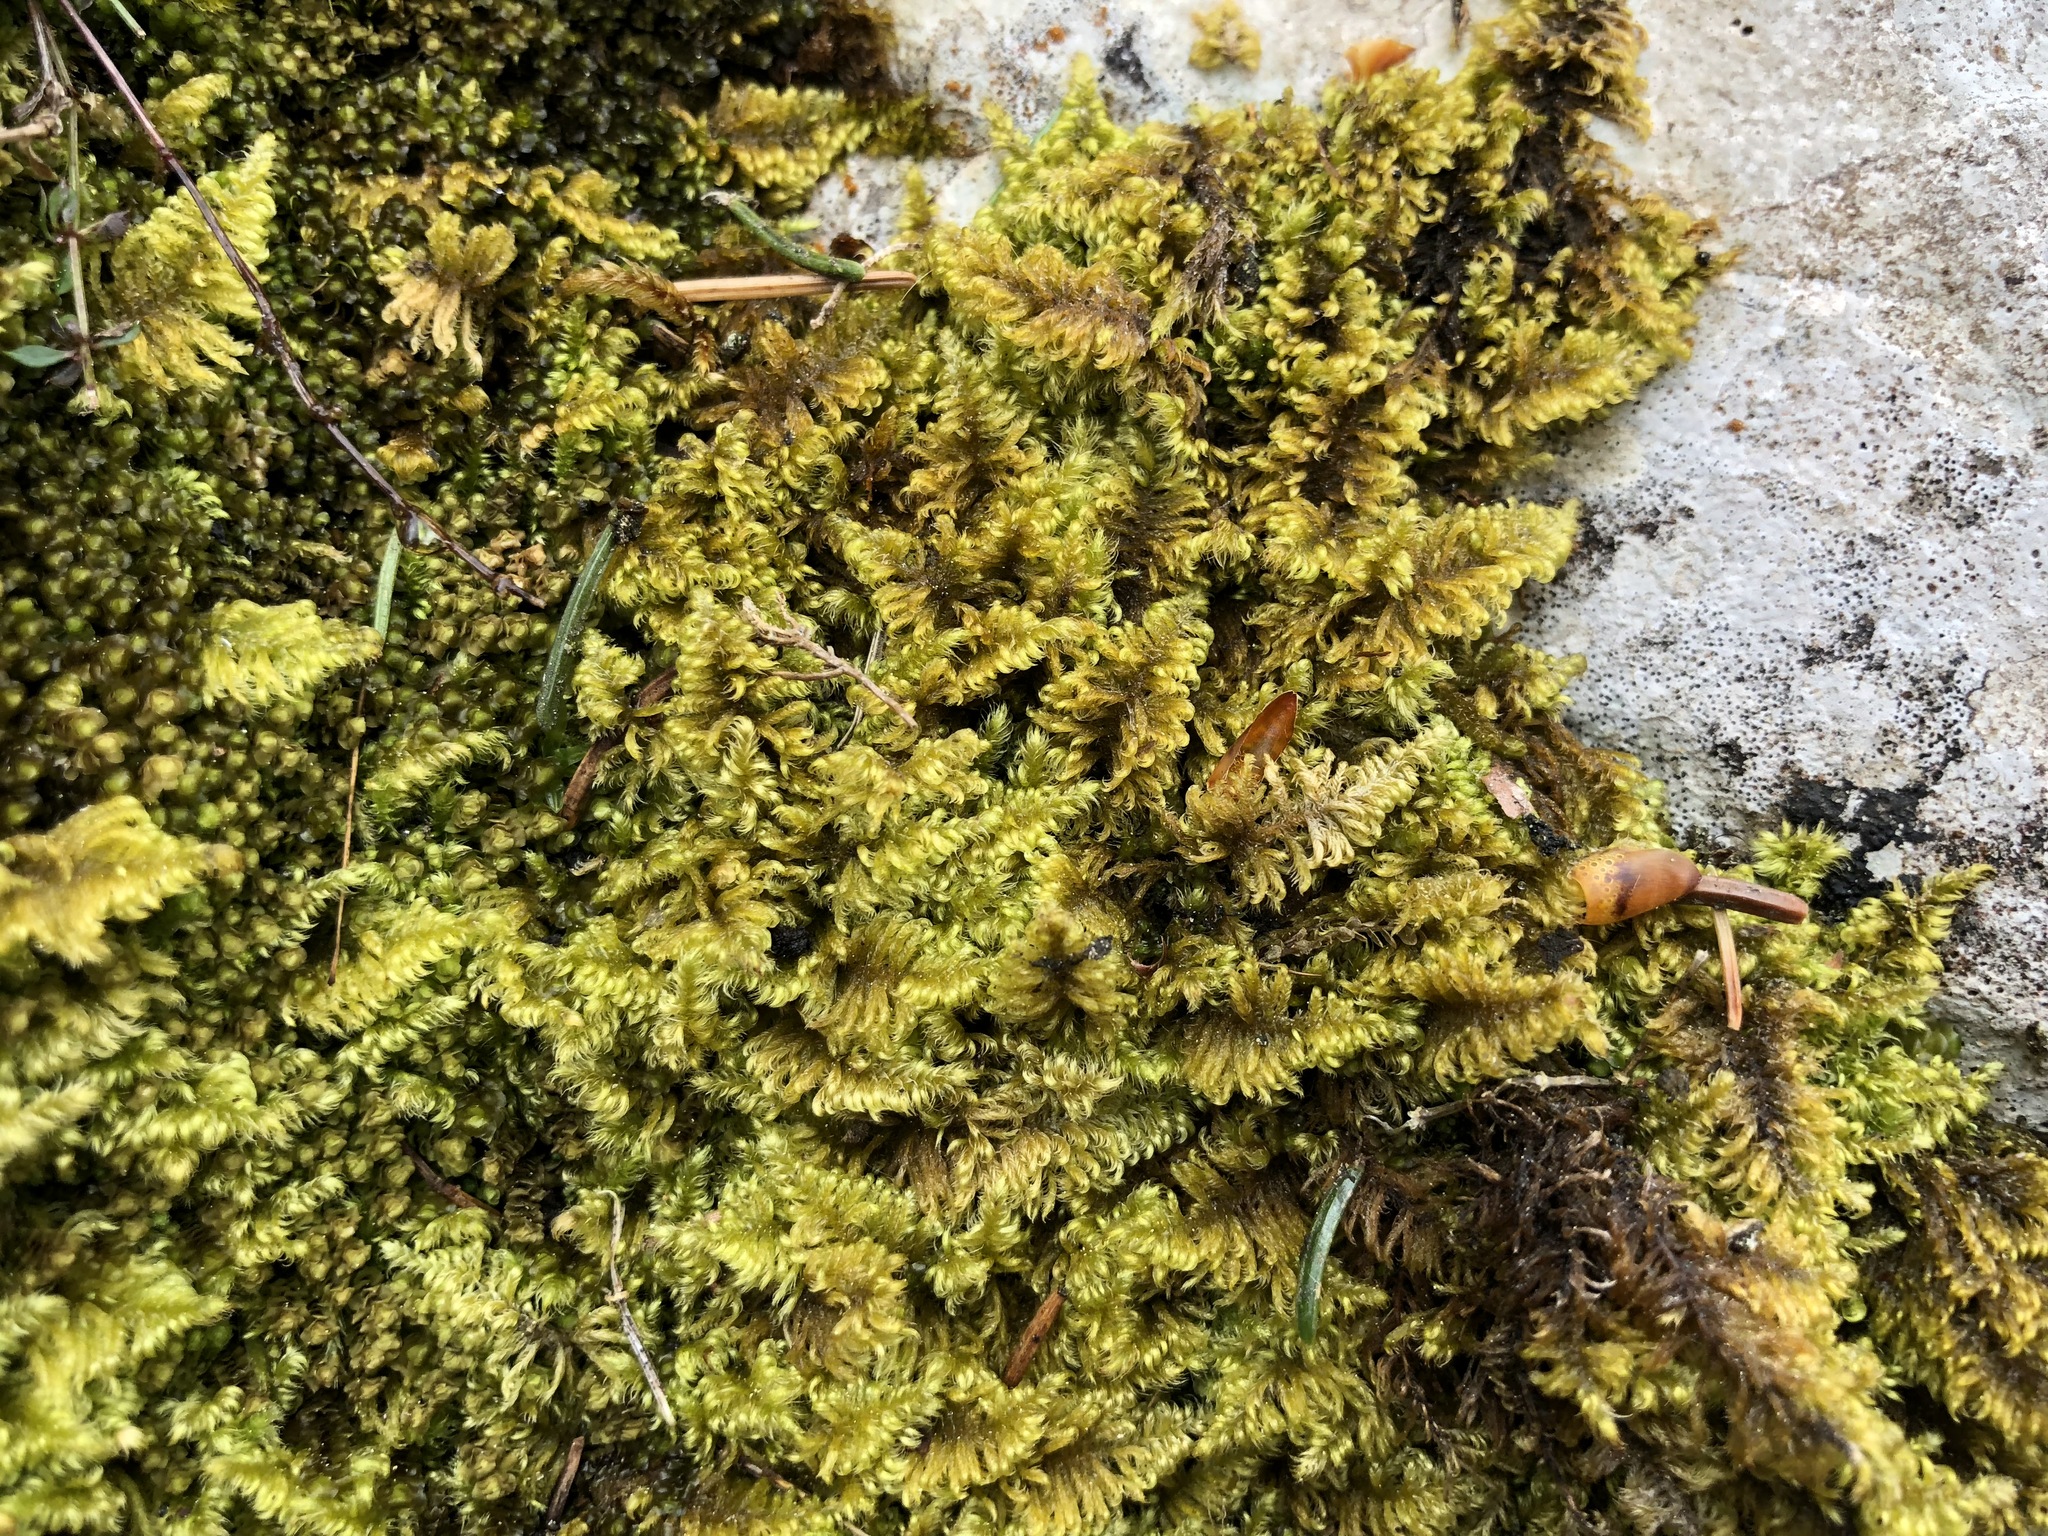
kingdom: Plantae
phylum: Bryophyta
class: Bryopsida
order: Hypnales
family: Myuriaceae
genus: Ctenidium
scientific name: Ctenidium molluscum
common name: Chalk comb-moss
